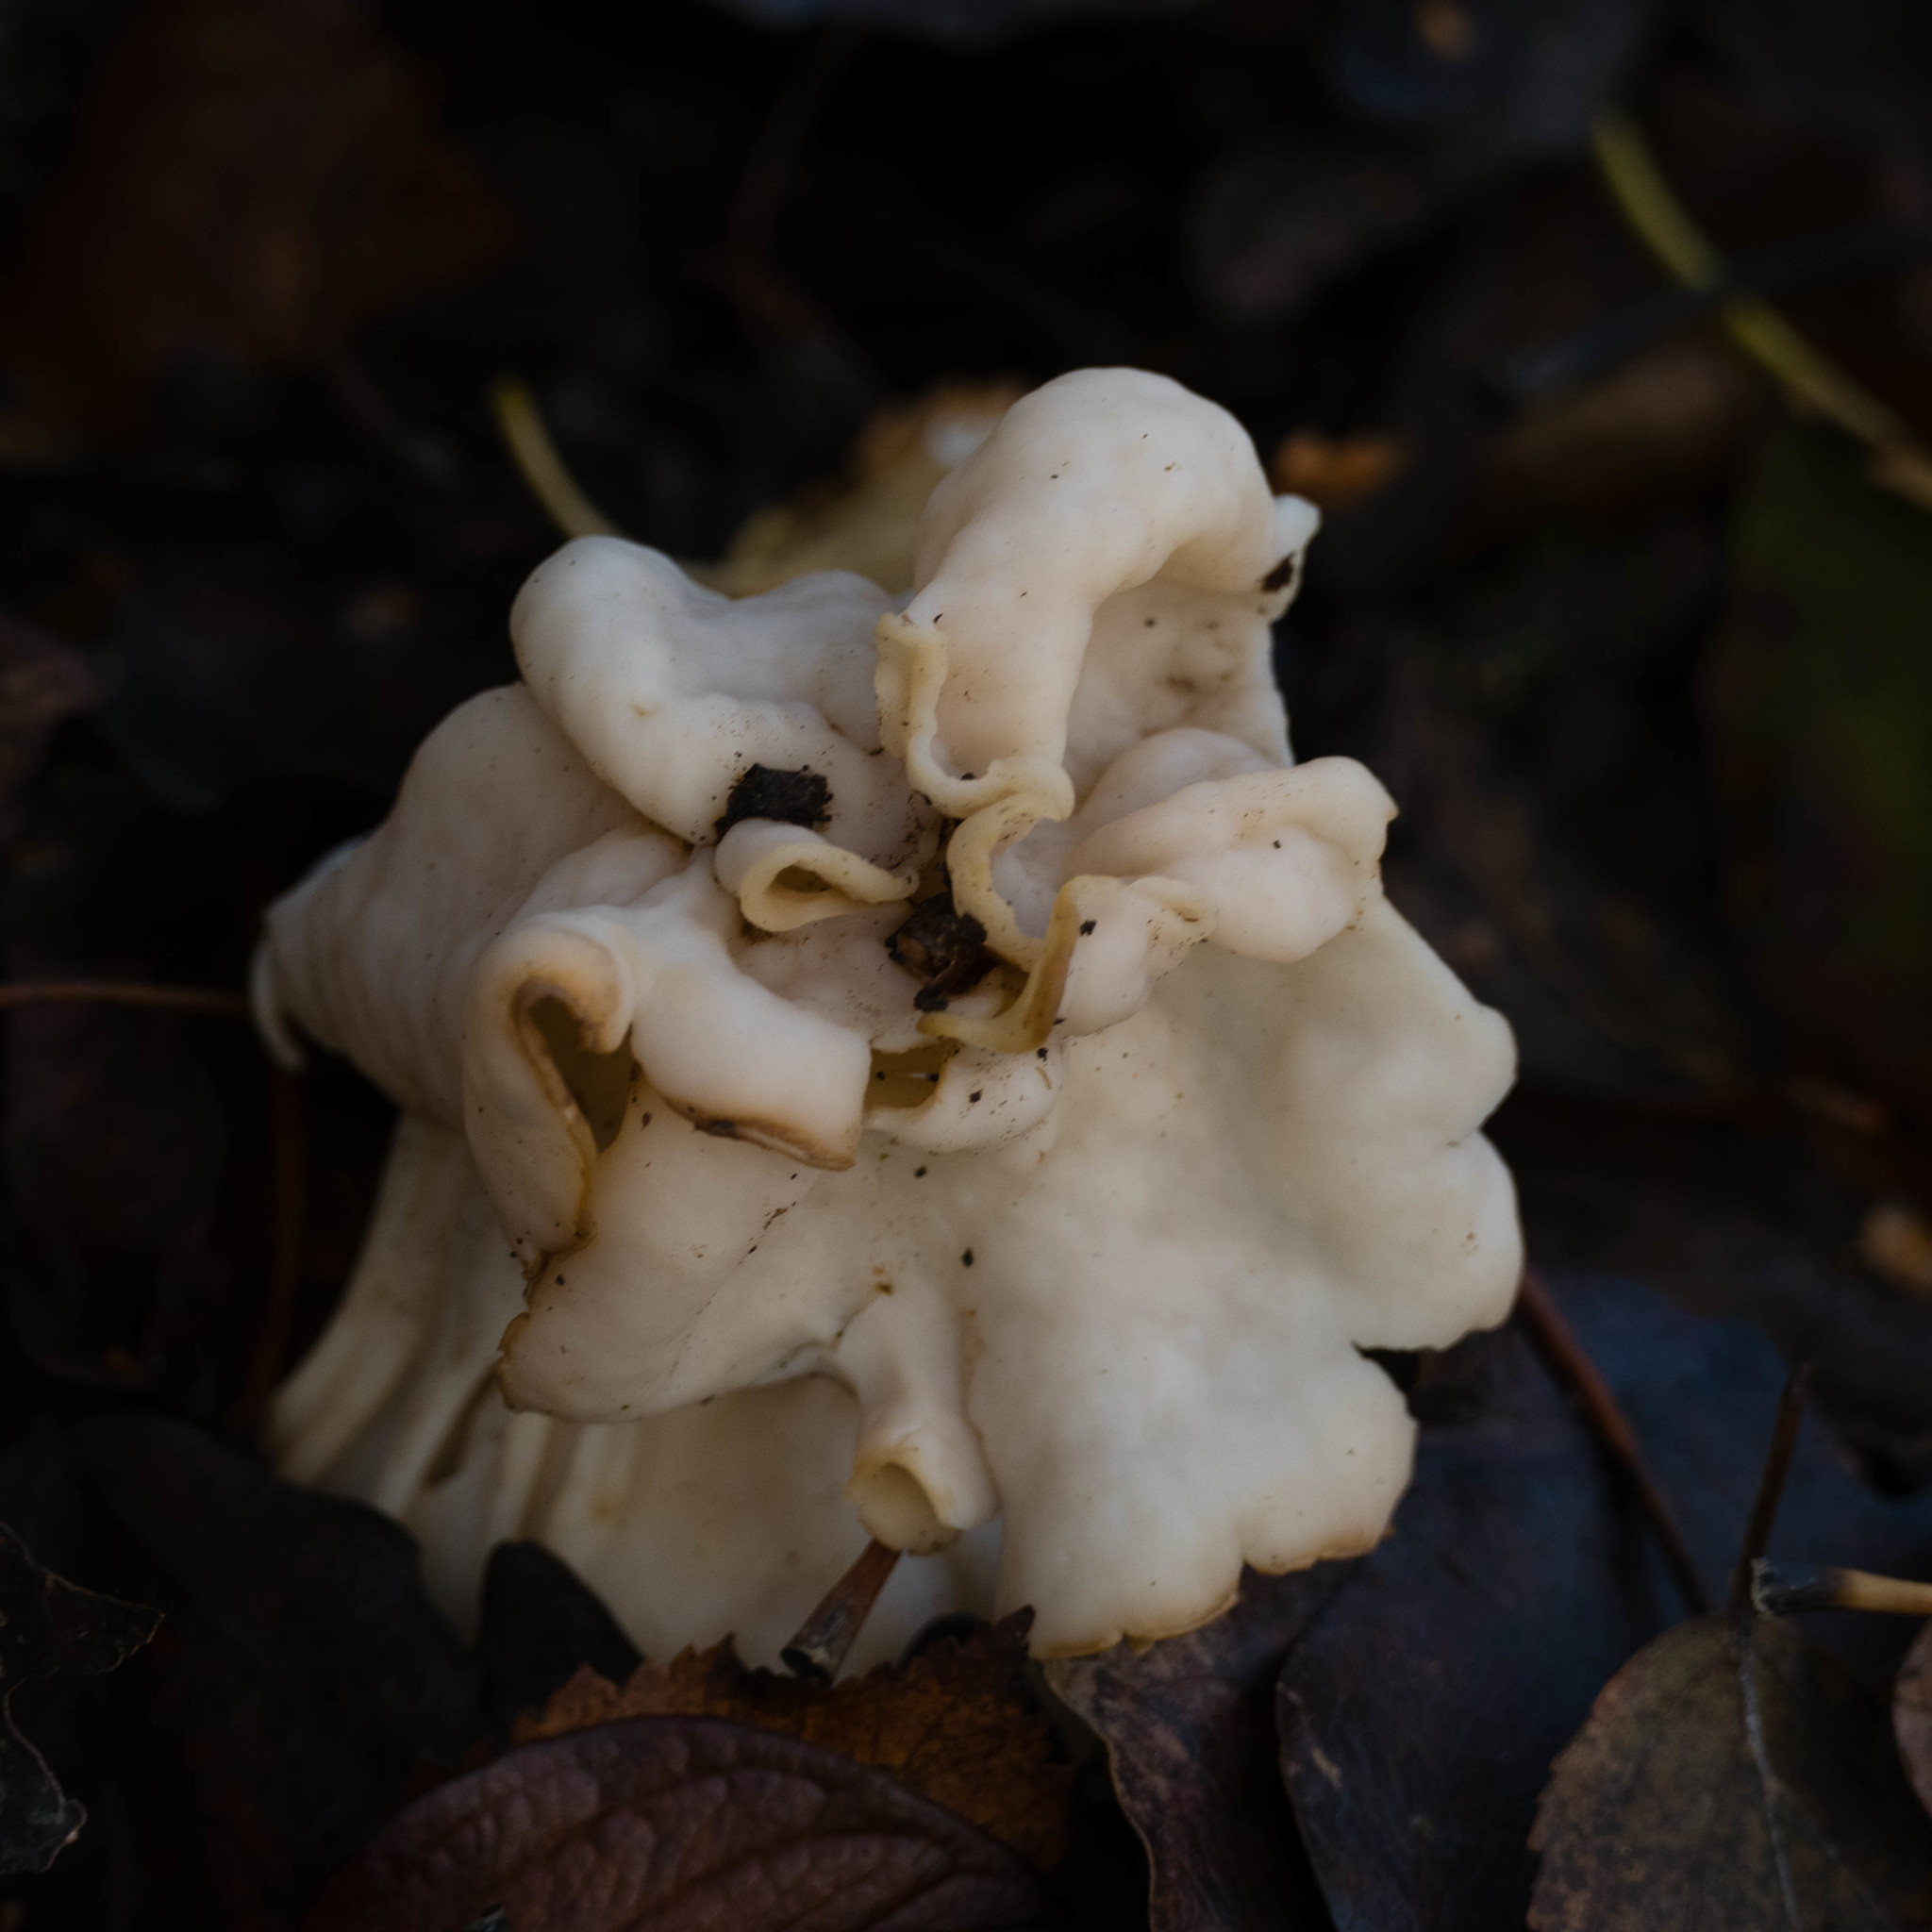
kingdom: Fungi
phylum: Ascomycota
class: Pezizomycetes
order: Pezizales
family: Helvellaceae
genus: Helvella
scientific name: Helvella crispa
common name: White saddle
